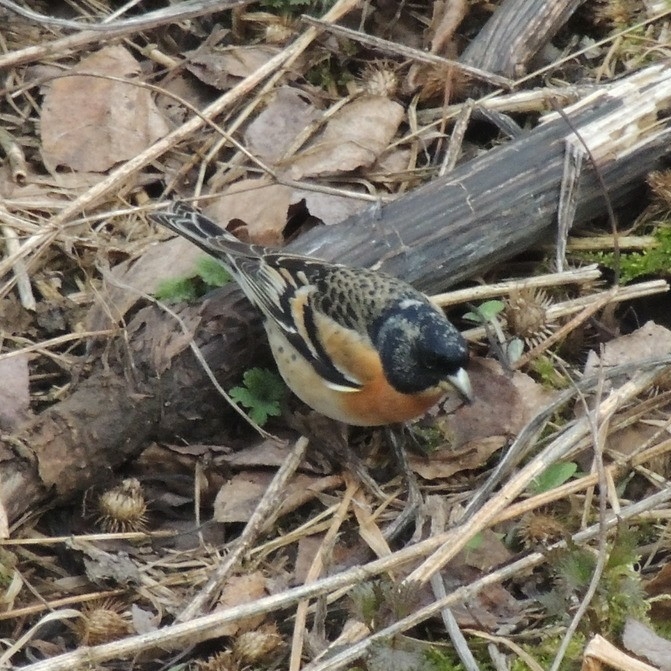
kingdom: Animalia
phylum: Chordata
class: Aves
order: Passeriformes
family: Fringillidae
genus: Fringilla
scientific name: Fringilla montifringilla
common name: Brambling
